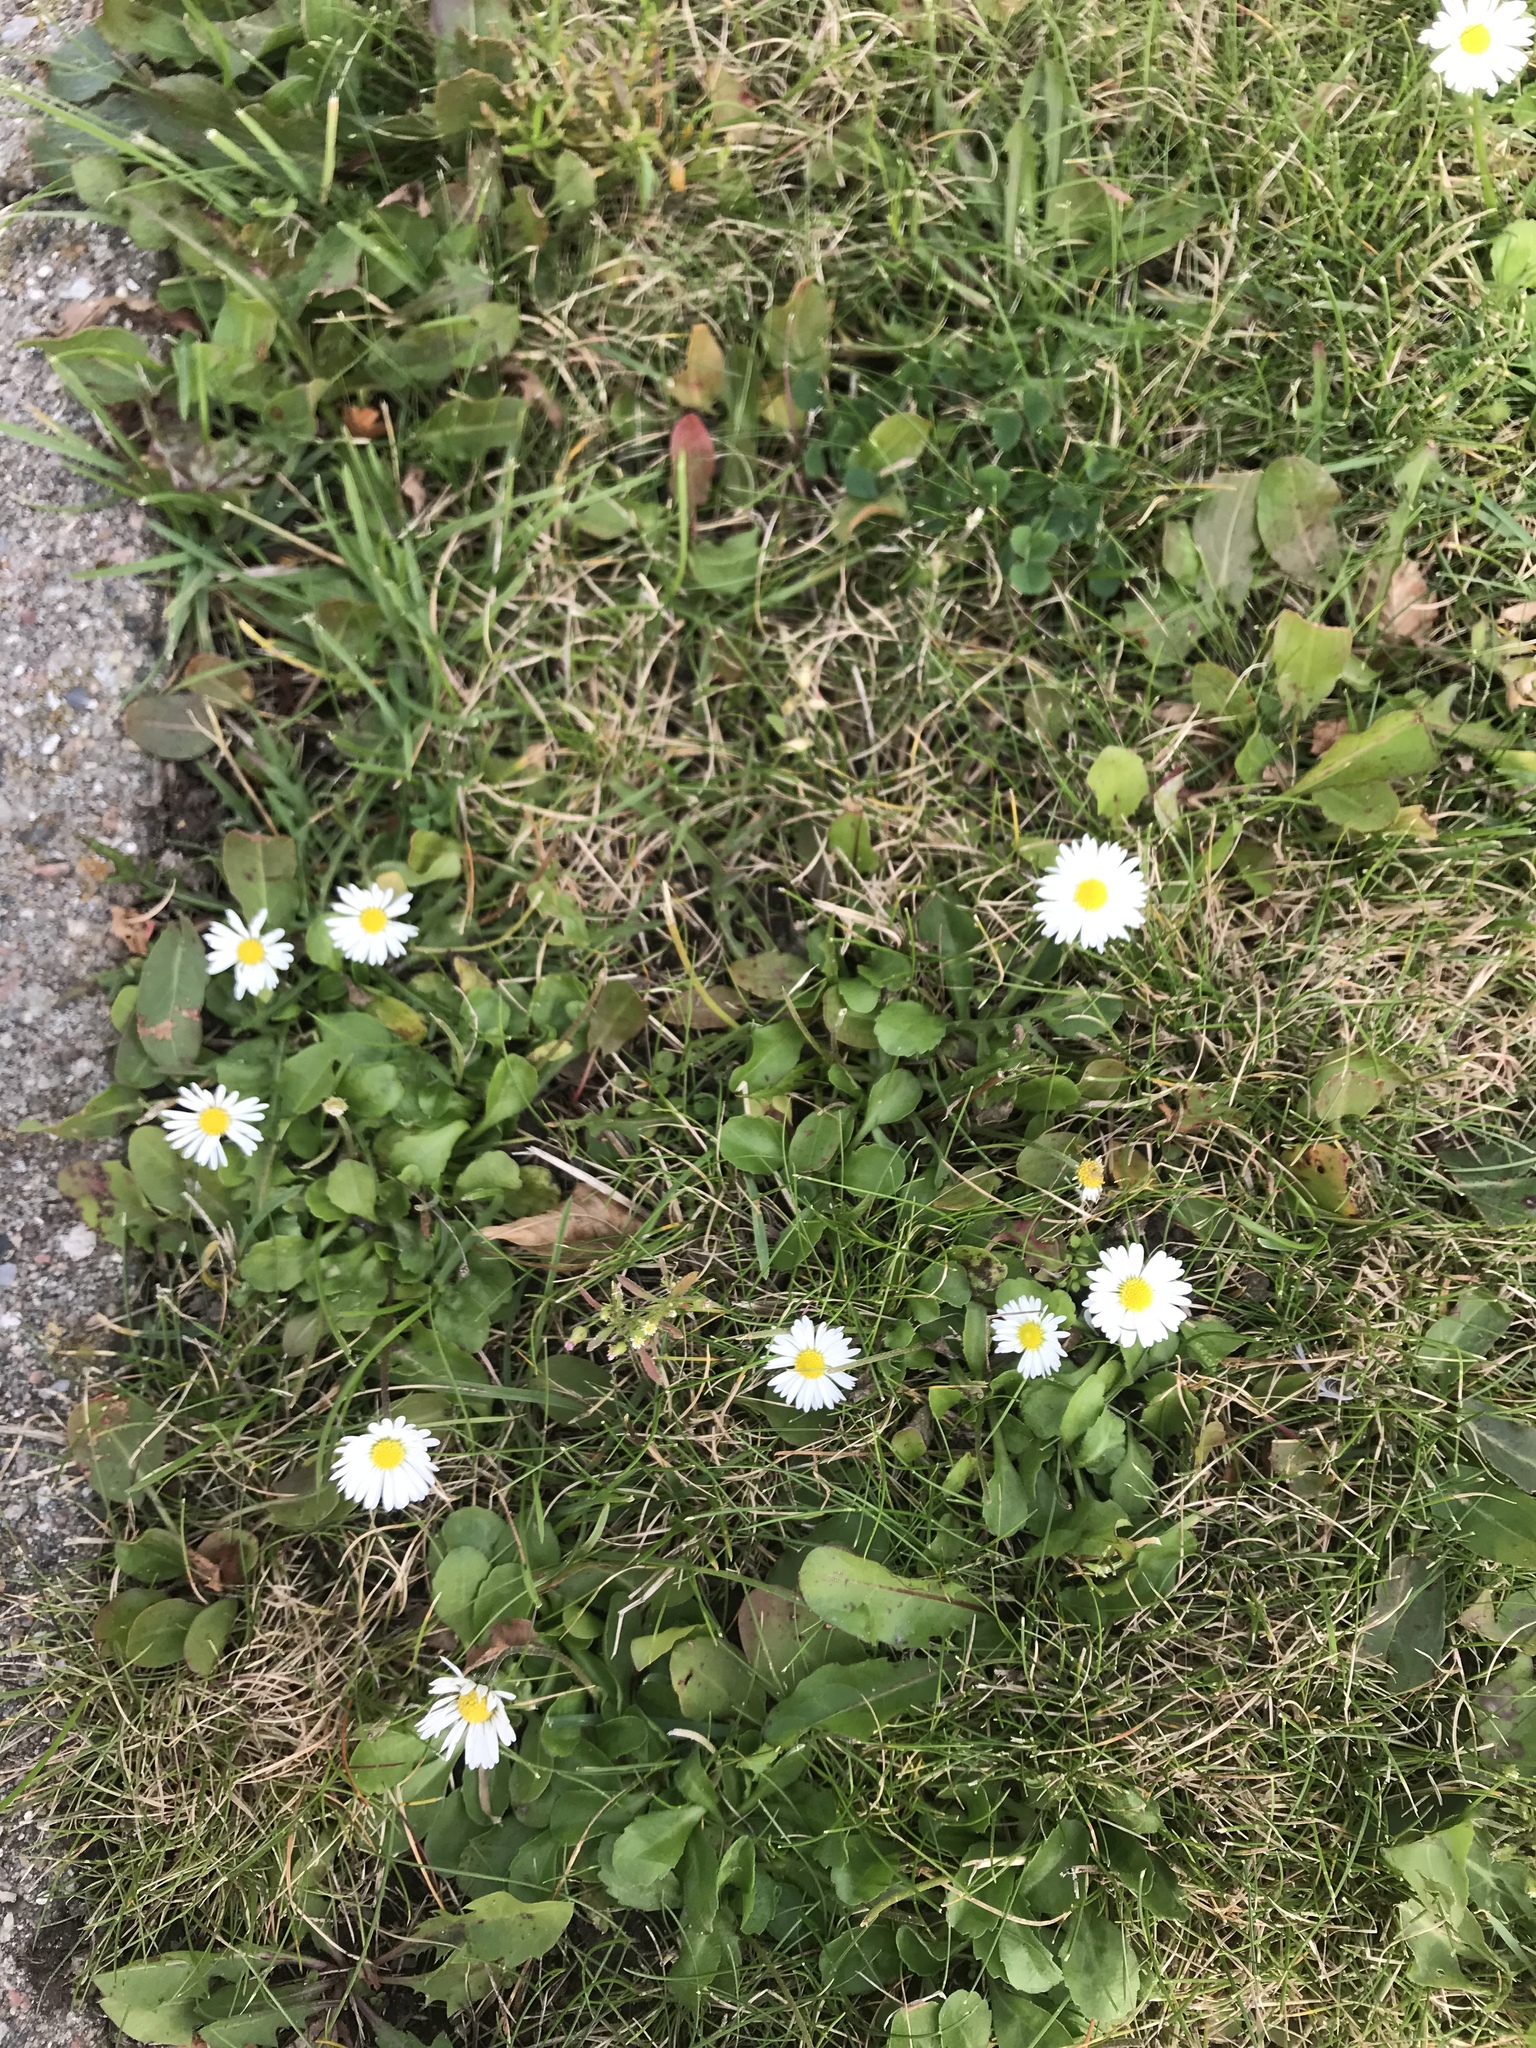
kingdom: Plantae
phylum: Tracheophyta
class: Magnoliopsida
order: Asterales
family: Asteraceae
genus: Bellis
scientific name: Bellis perennis
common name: Lawndaisy
